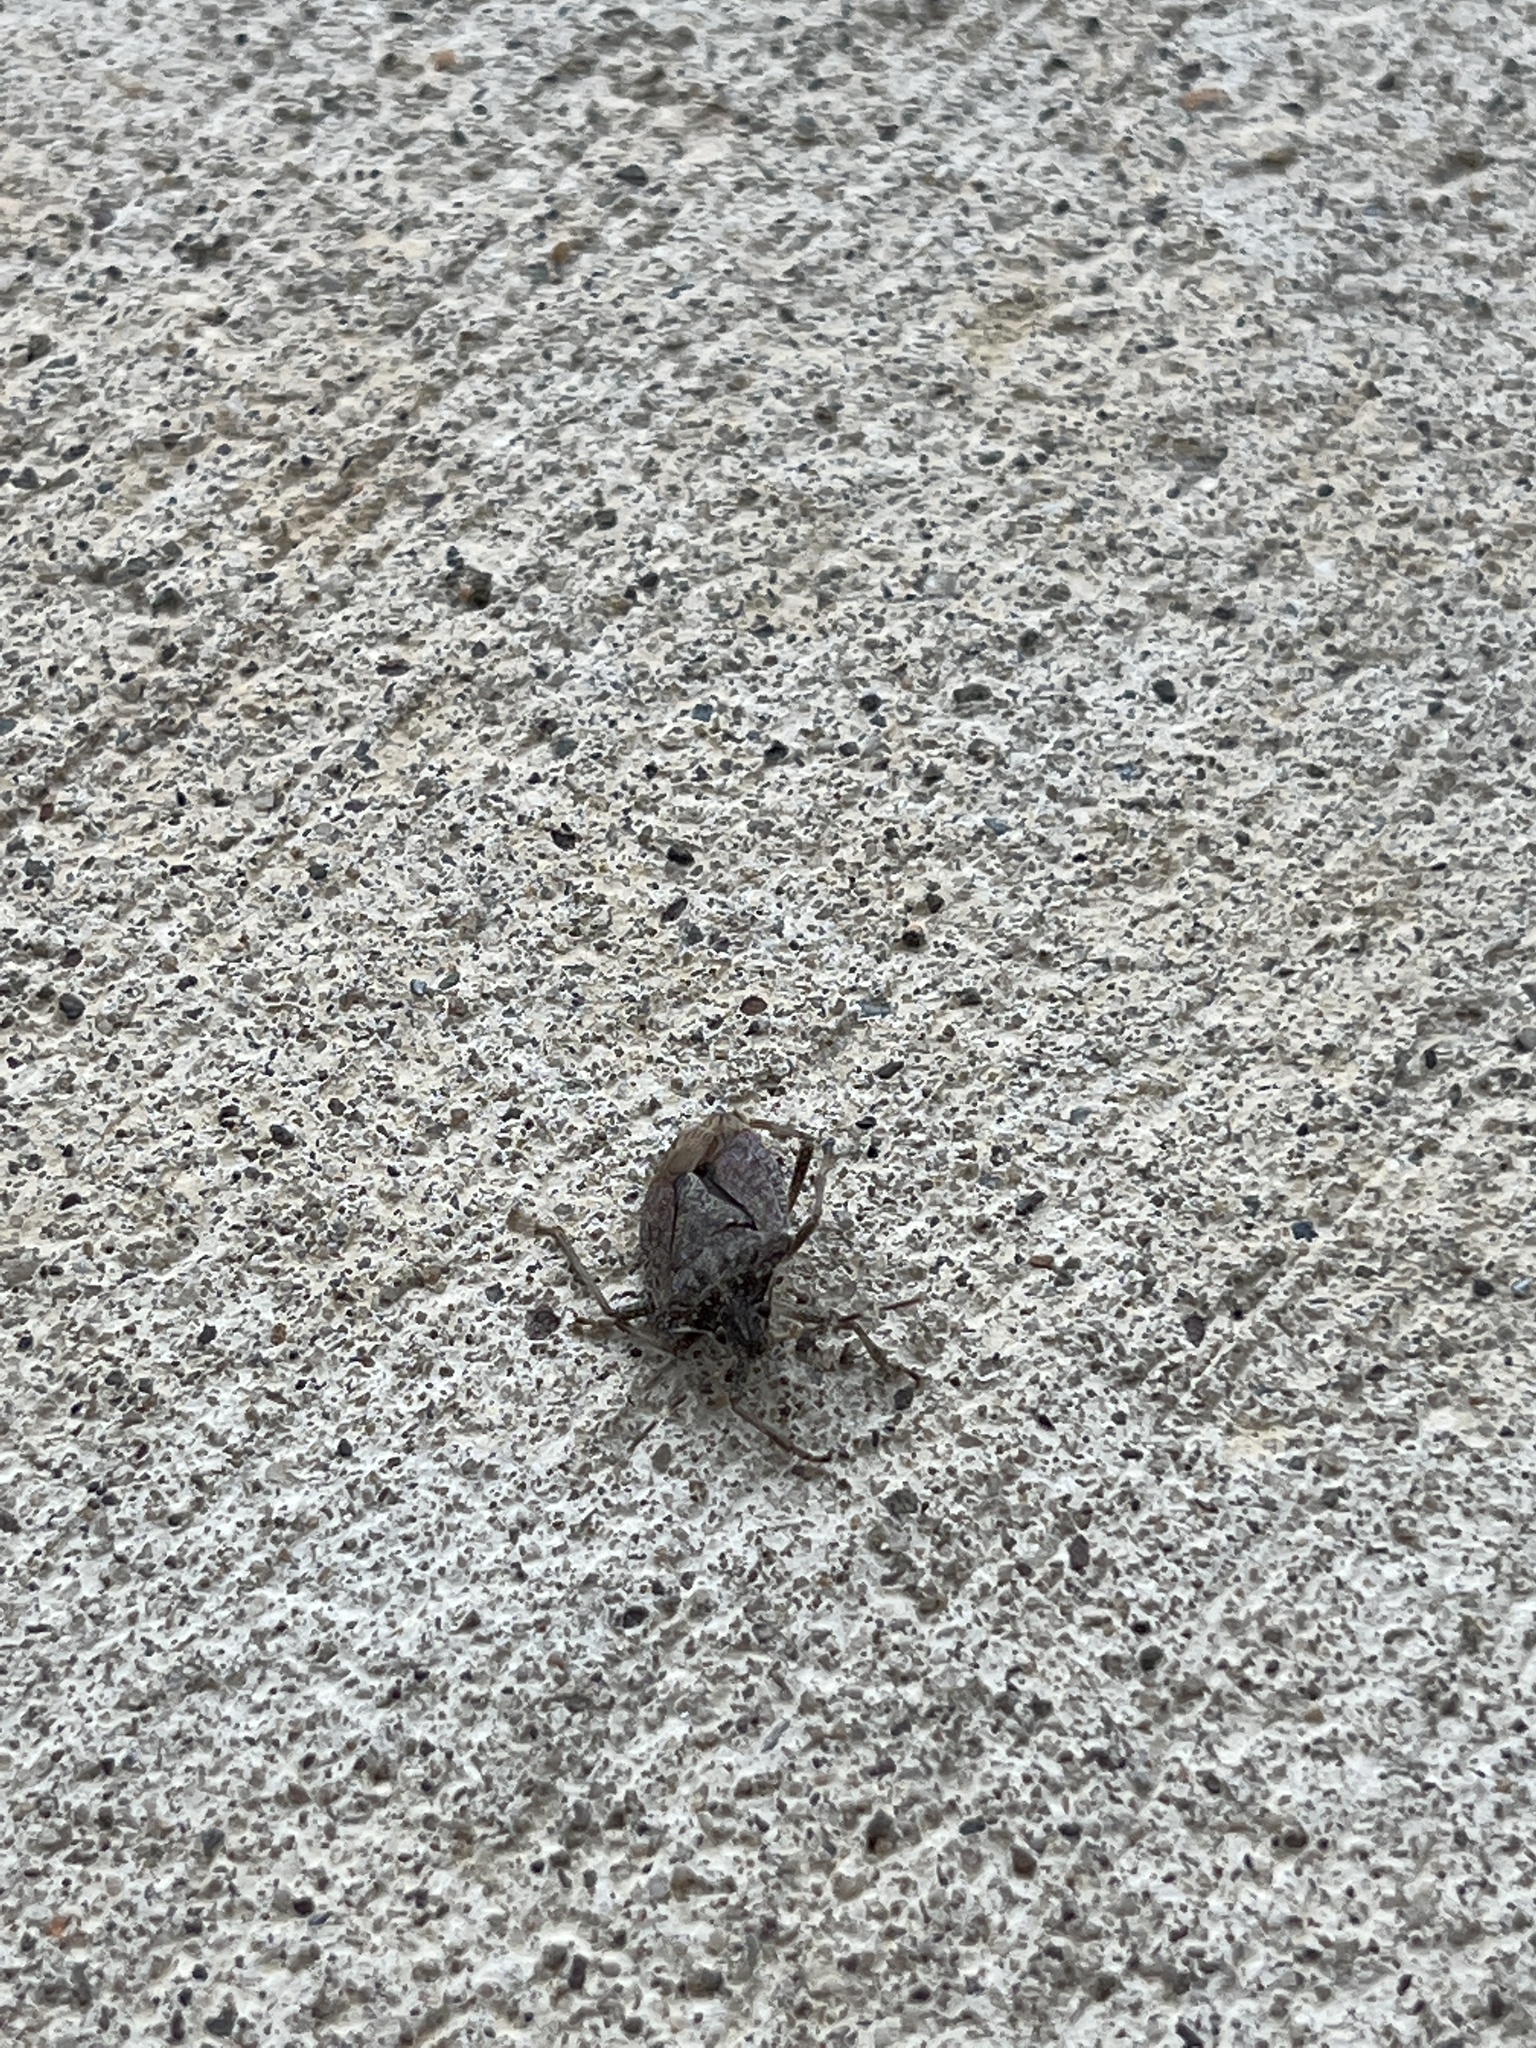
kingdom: Animalia
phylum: Arthropoda
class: Insecta
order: Hemiptera
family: Pentatomidae
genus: Halyomorpha
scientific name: Halyomorpha halys
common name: Brown marmorated stink bug
